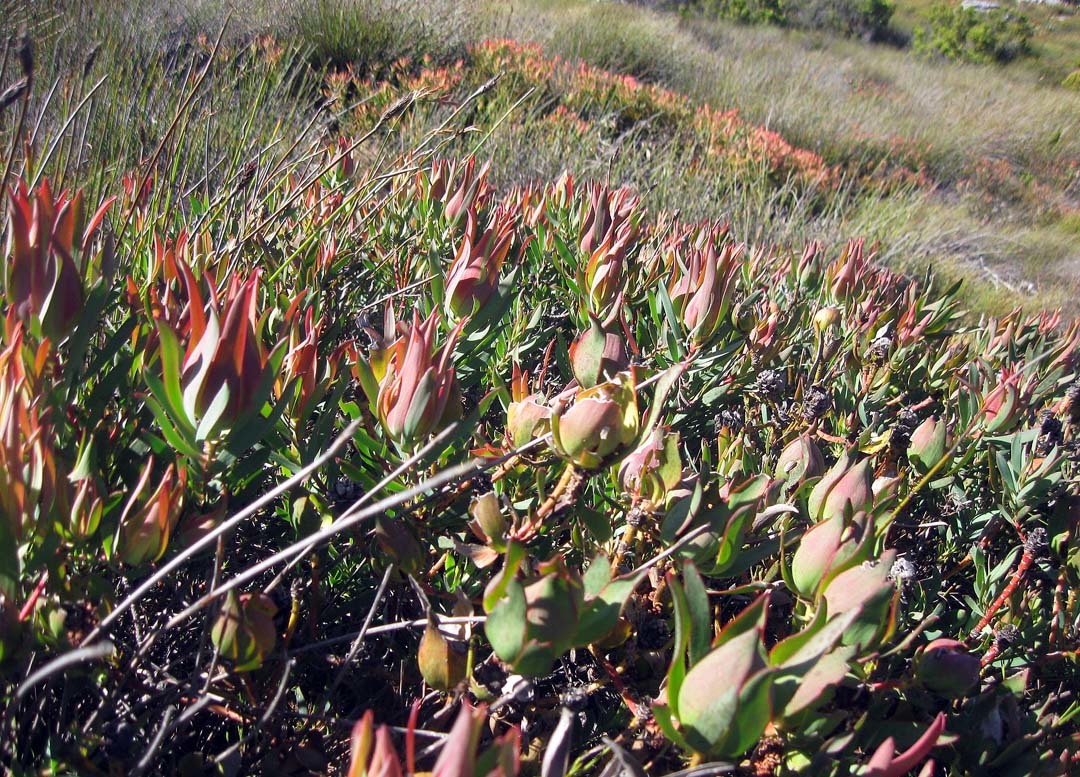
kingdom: Plantae
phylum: Tracheophyta
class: Magnoliopsida
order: Proteales
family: Proteaceae
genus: Leucadendron
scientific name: Leucadendron salignum
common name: Common sunshine conebush
